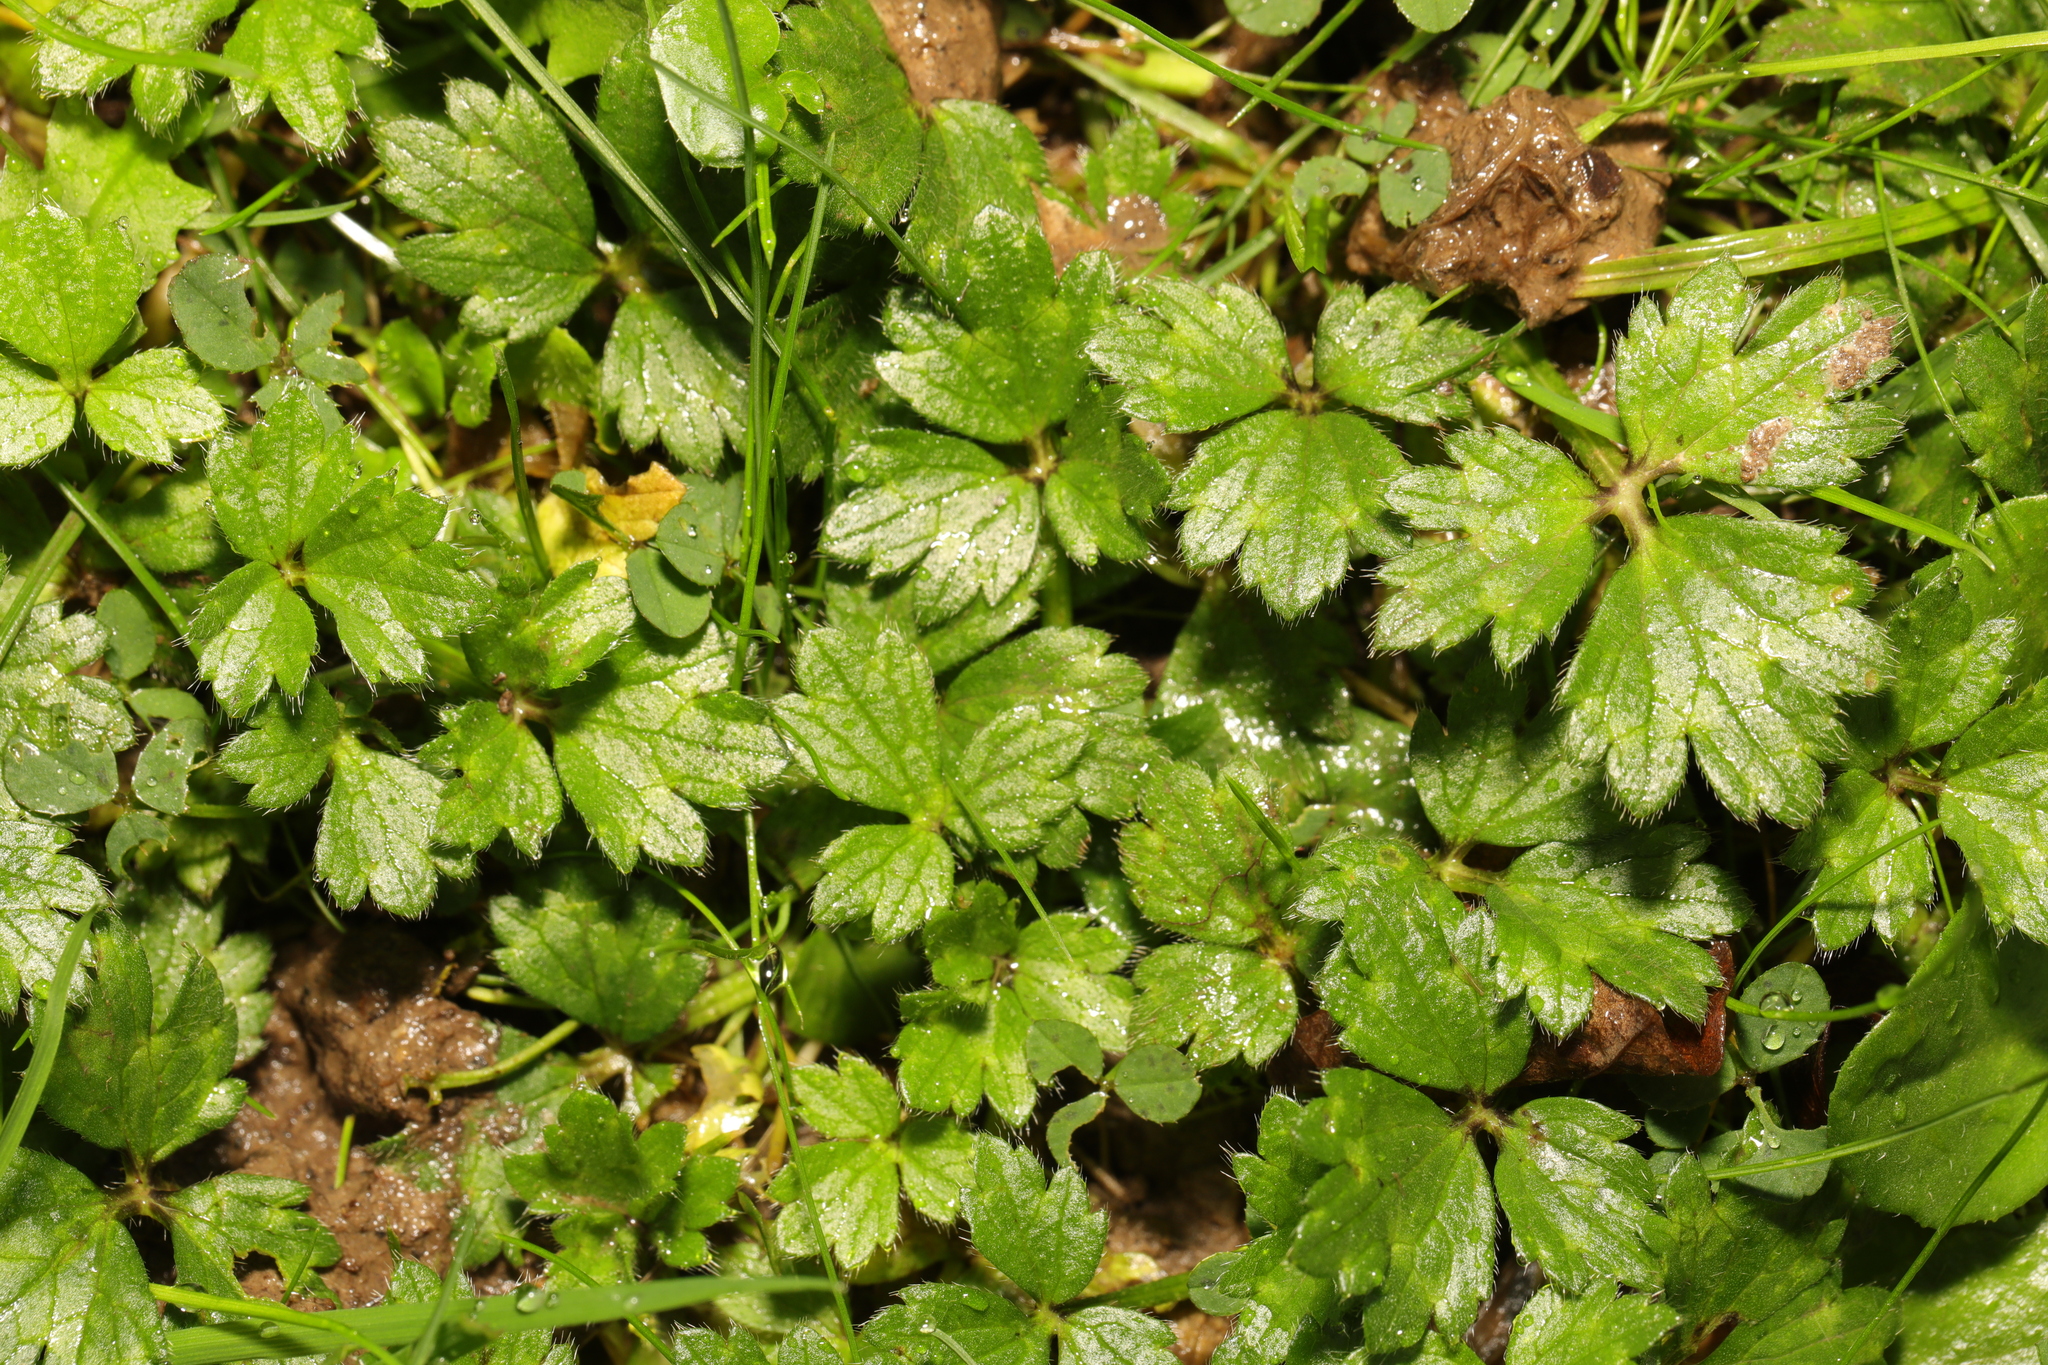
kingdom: Plantae
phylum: Tracheophyta
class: Magnoliopsida
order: Ranunculales
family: Ranunculaceae
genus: Ranunculus
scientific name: Ranunculus repens
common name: Creeping buttercup
